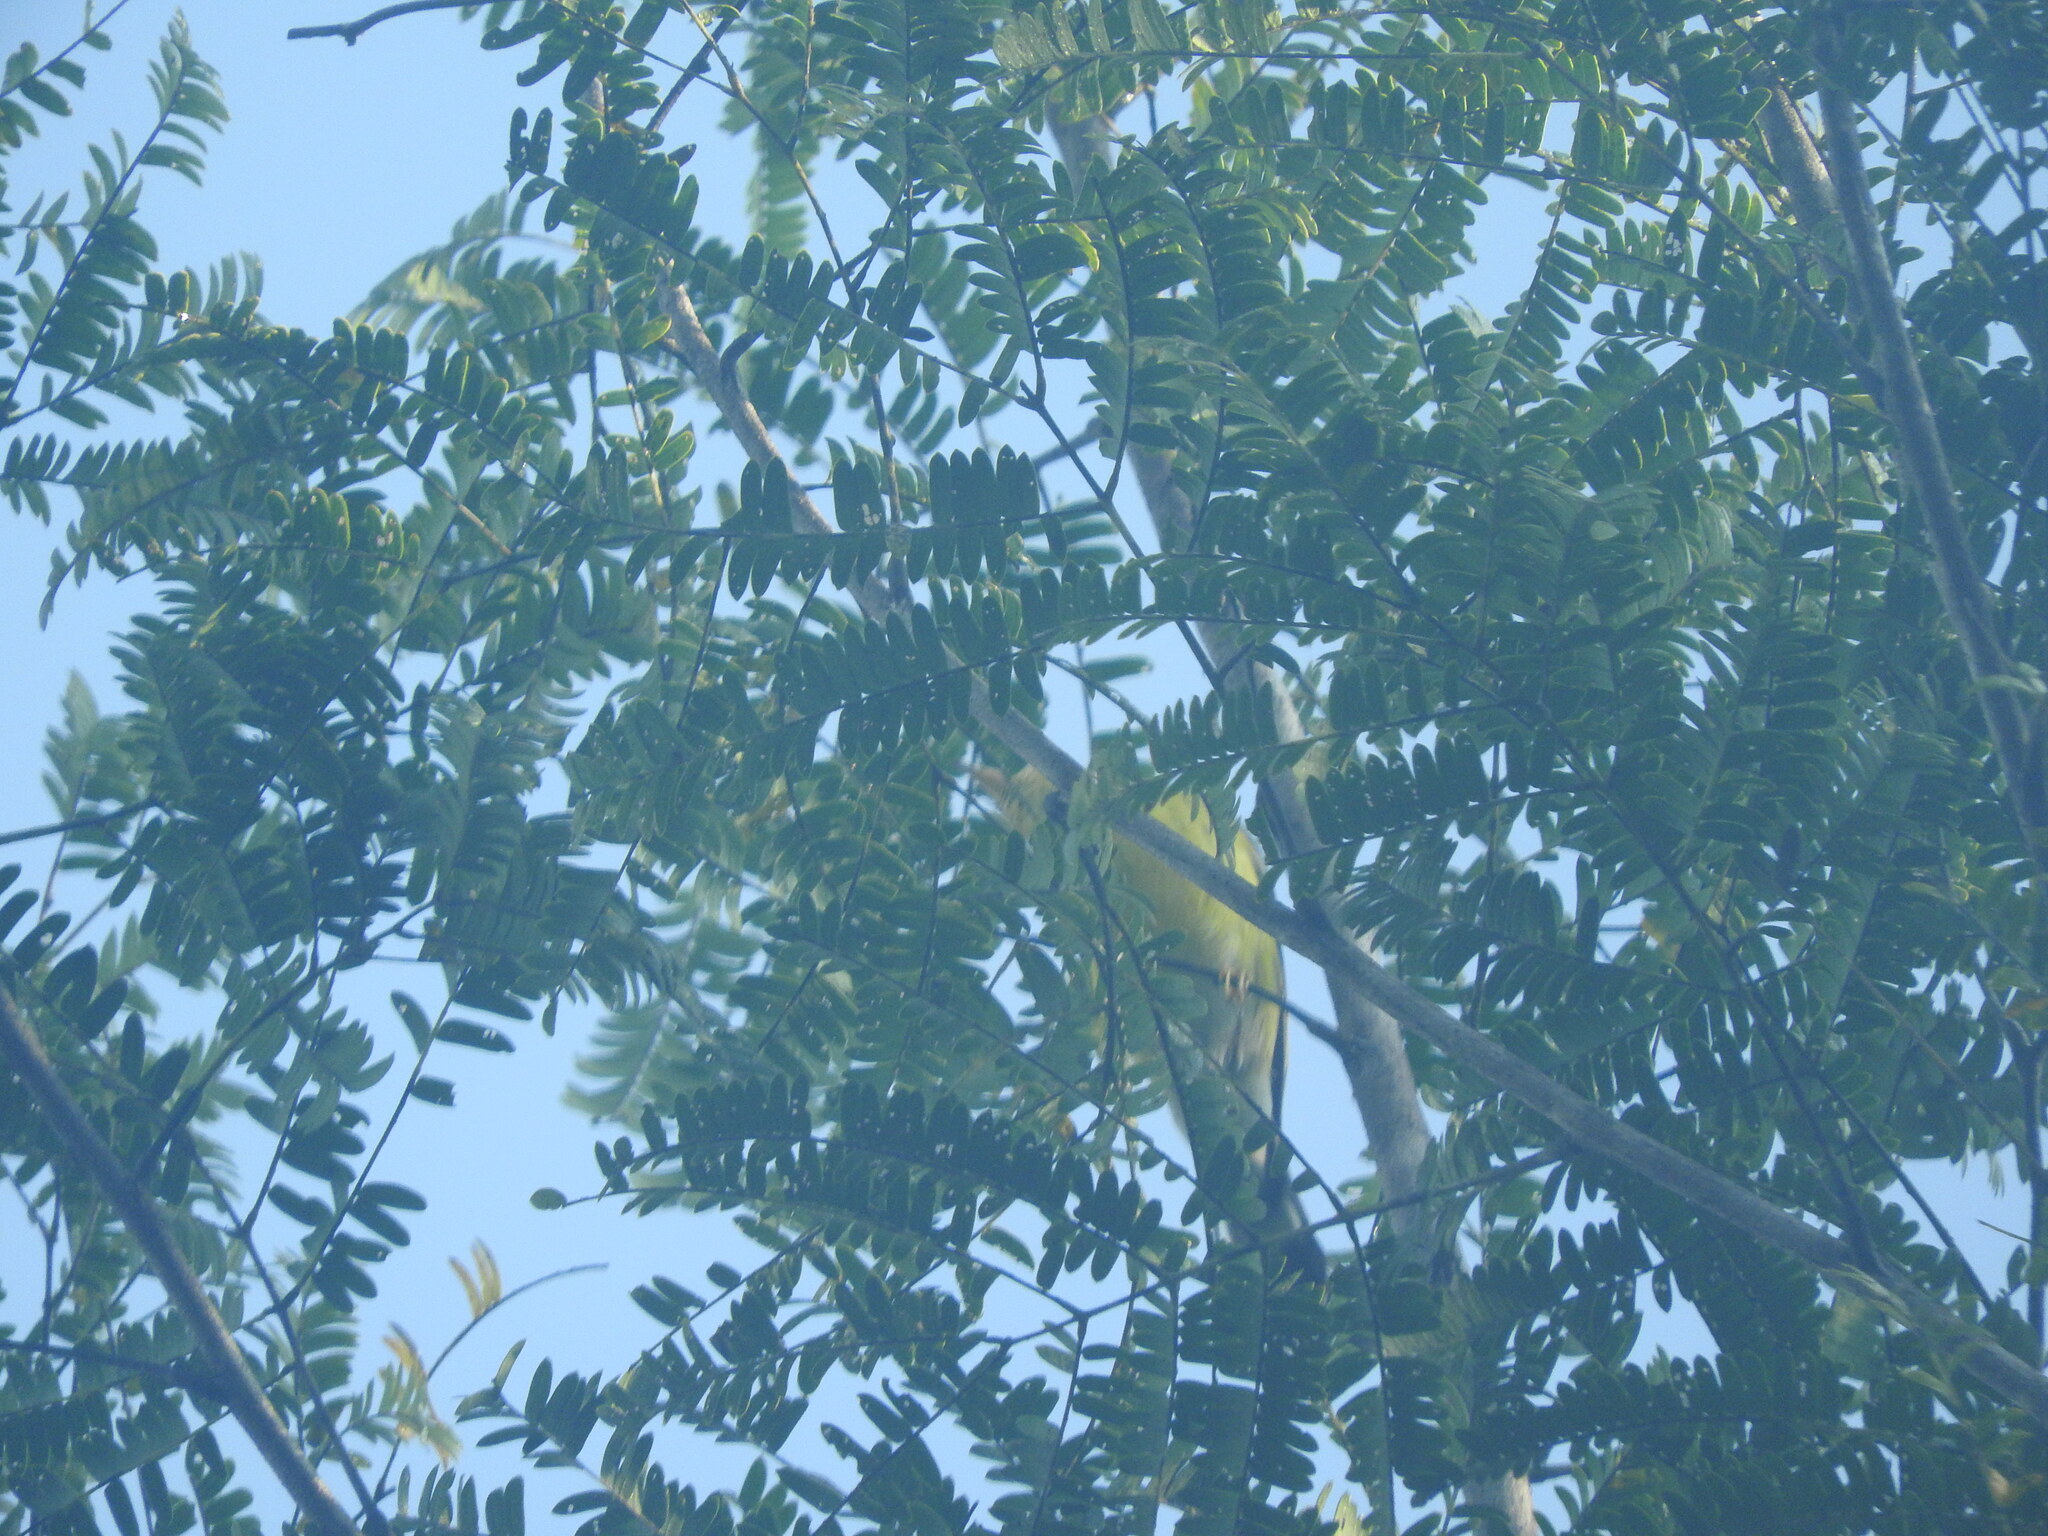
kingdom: Animalia
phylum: Chordata
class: Aves
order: Passeriformes
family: Parulidae
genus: Setophaga
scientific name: Setophaga magnolia
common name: Magnolia warbler
